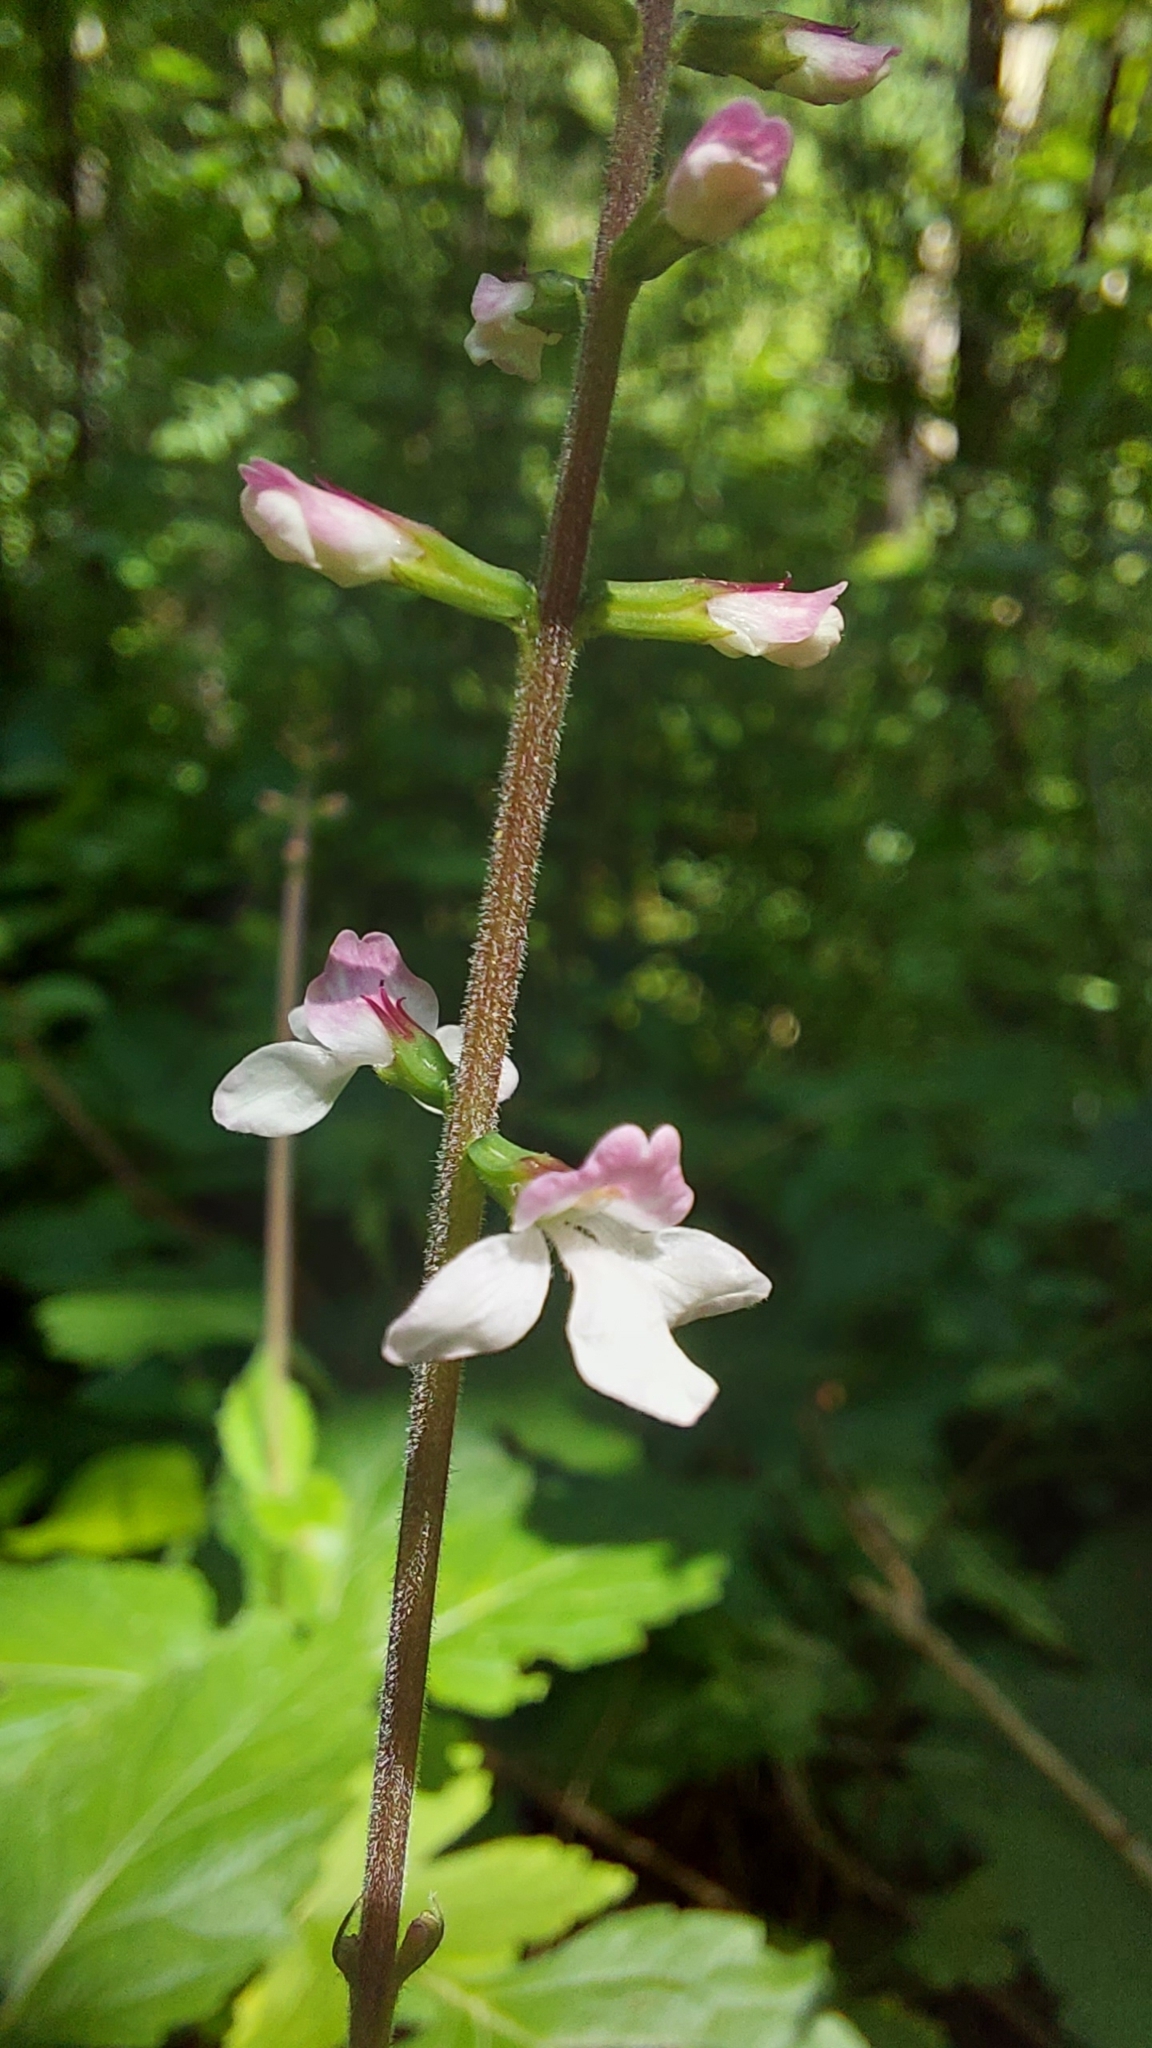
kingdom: Plantae
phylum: Tracheophyta
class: Magnoliopsida
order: Lamiales
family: Phrymaceae
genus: Phryma
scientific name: Phryma leptostachya
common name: American lopseed
